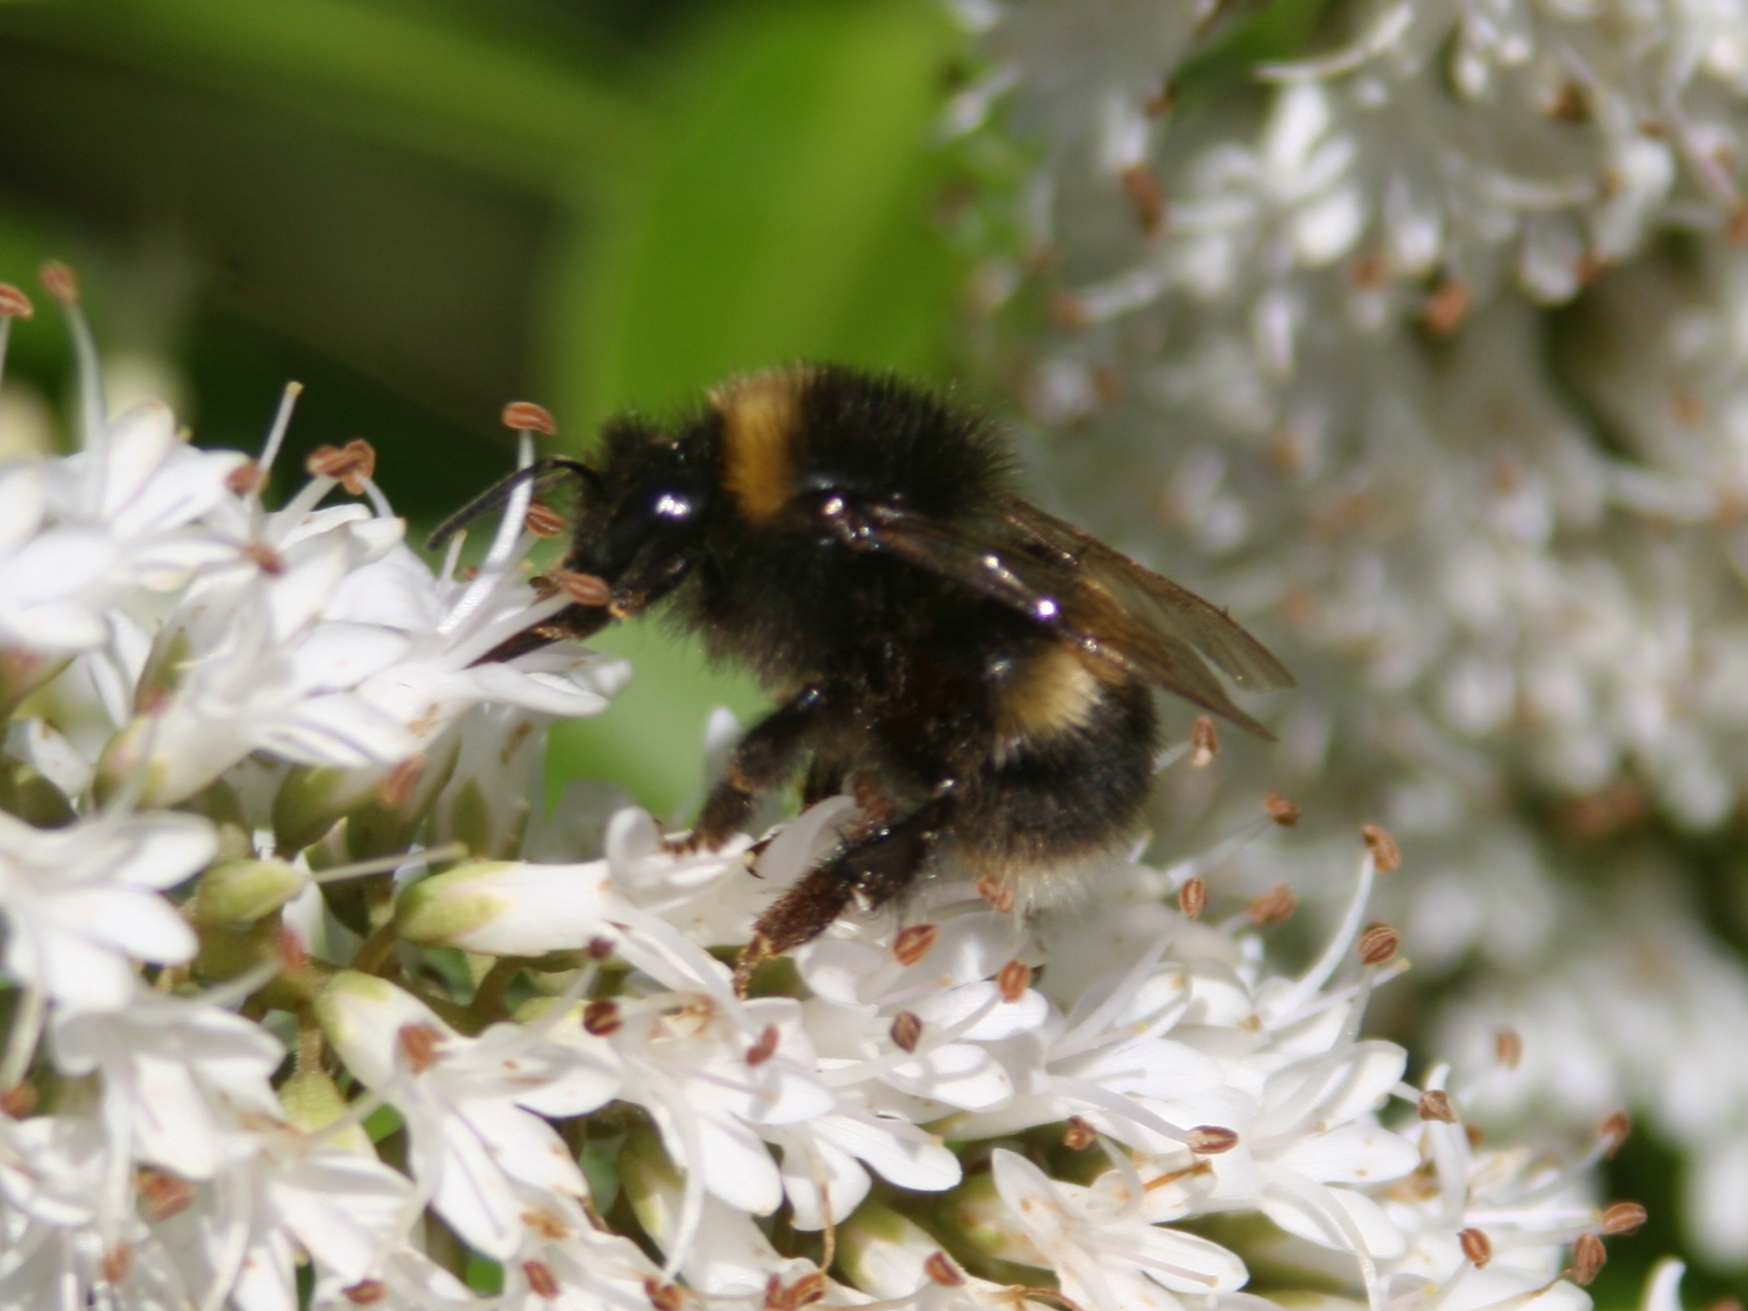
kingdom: Animalia
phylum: Arthropoda
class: Insecta
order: Hymenoptera
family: Apidae
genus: Bombus
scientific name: Bombus terrestris
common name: Buff-tailed bumblebee
